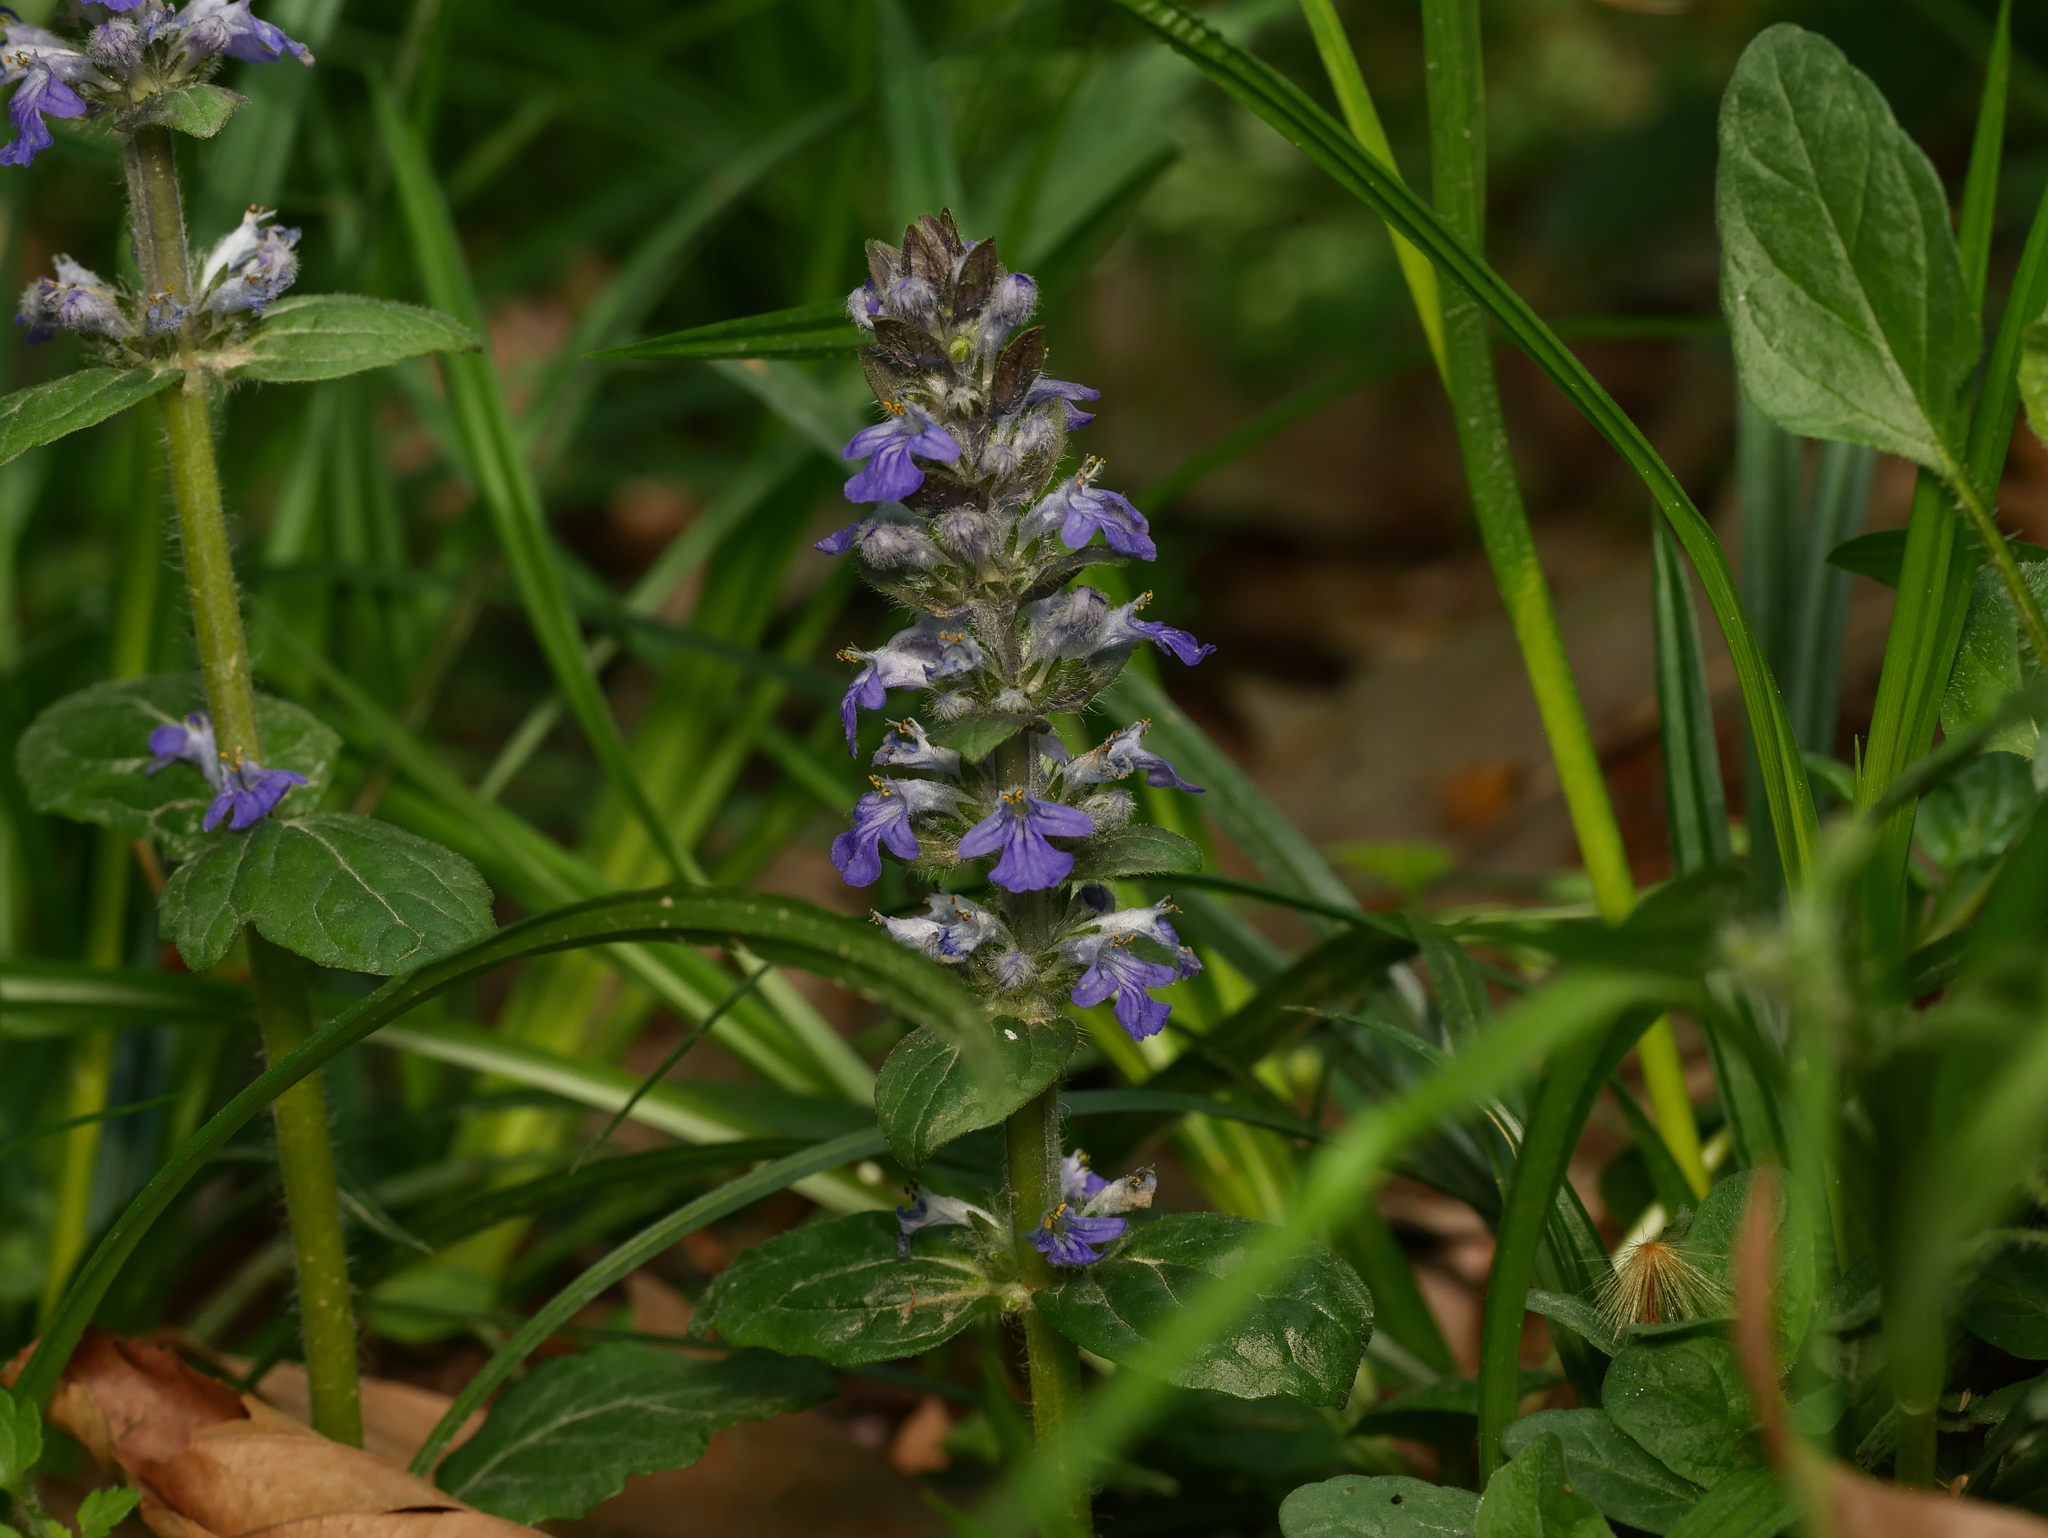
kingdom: Plantae
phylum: Tracheophyta
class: Magnoliopsida
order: Lamiales
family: Lamiaceae
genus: Ajuga
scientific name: Ajuga reptans
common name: Bugle
